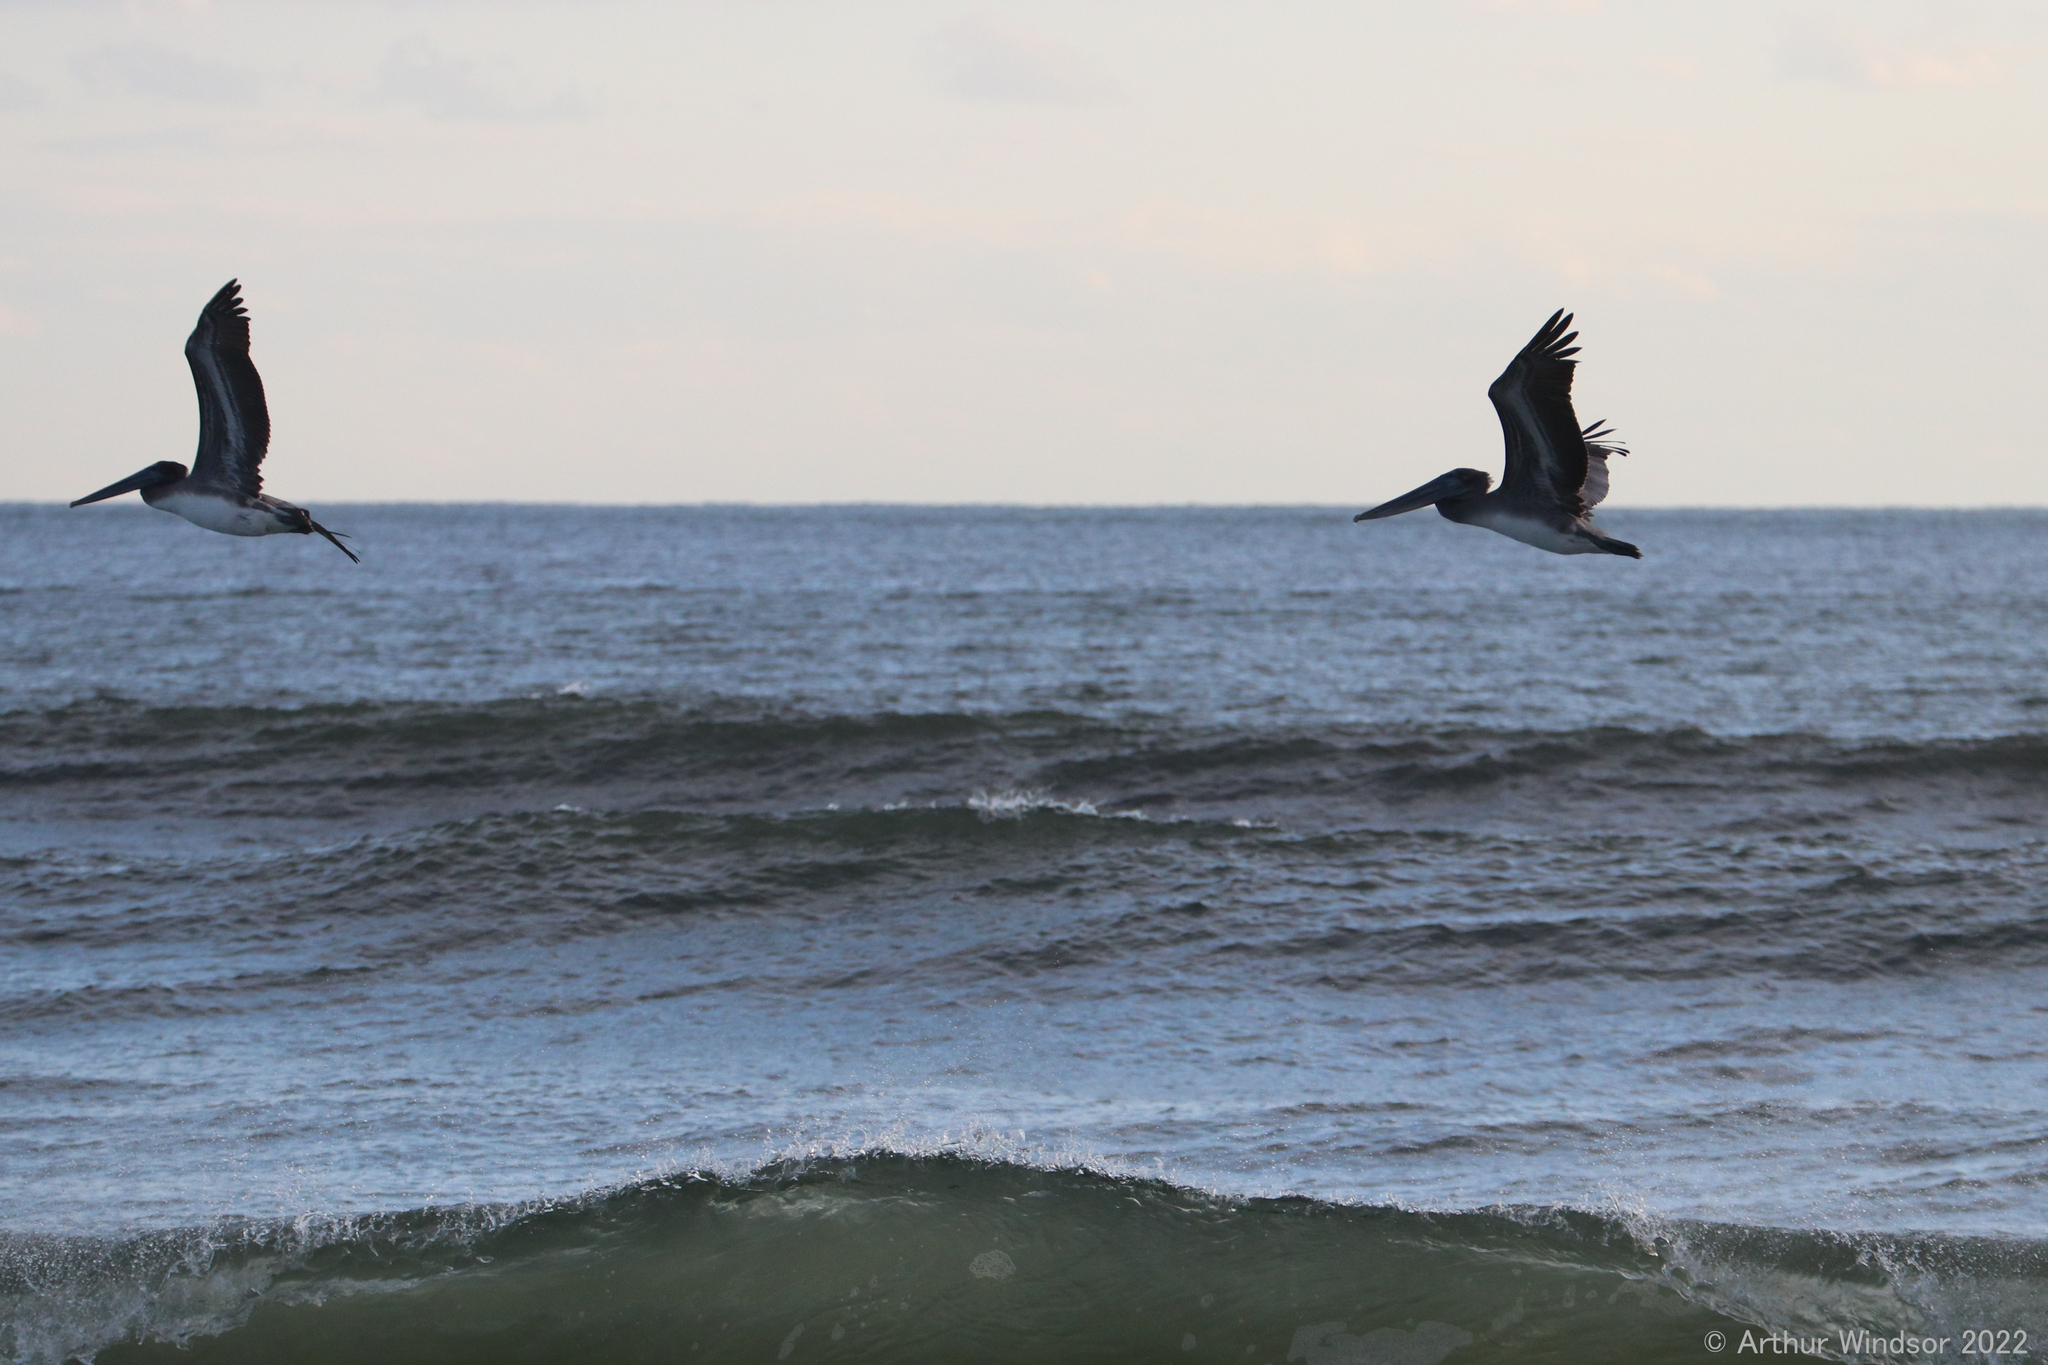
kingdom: Animalia
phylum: Chordata
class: Aves
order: Pelecaniformes
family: Pelecanidae
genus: Pelecanus
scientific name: Pelecanus occidentalis
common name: Brown pelican
